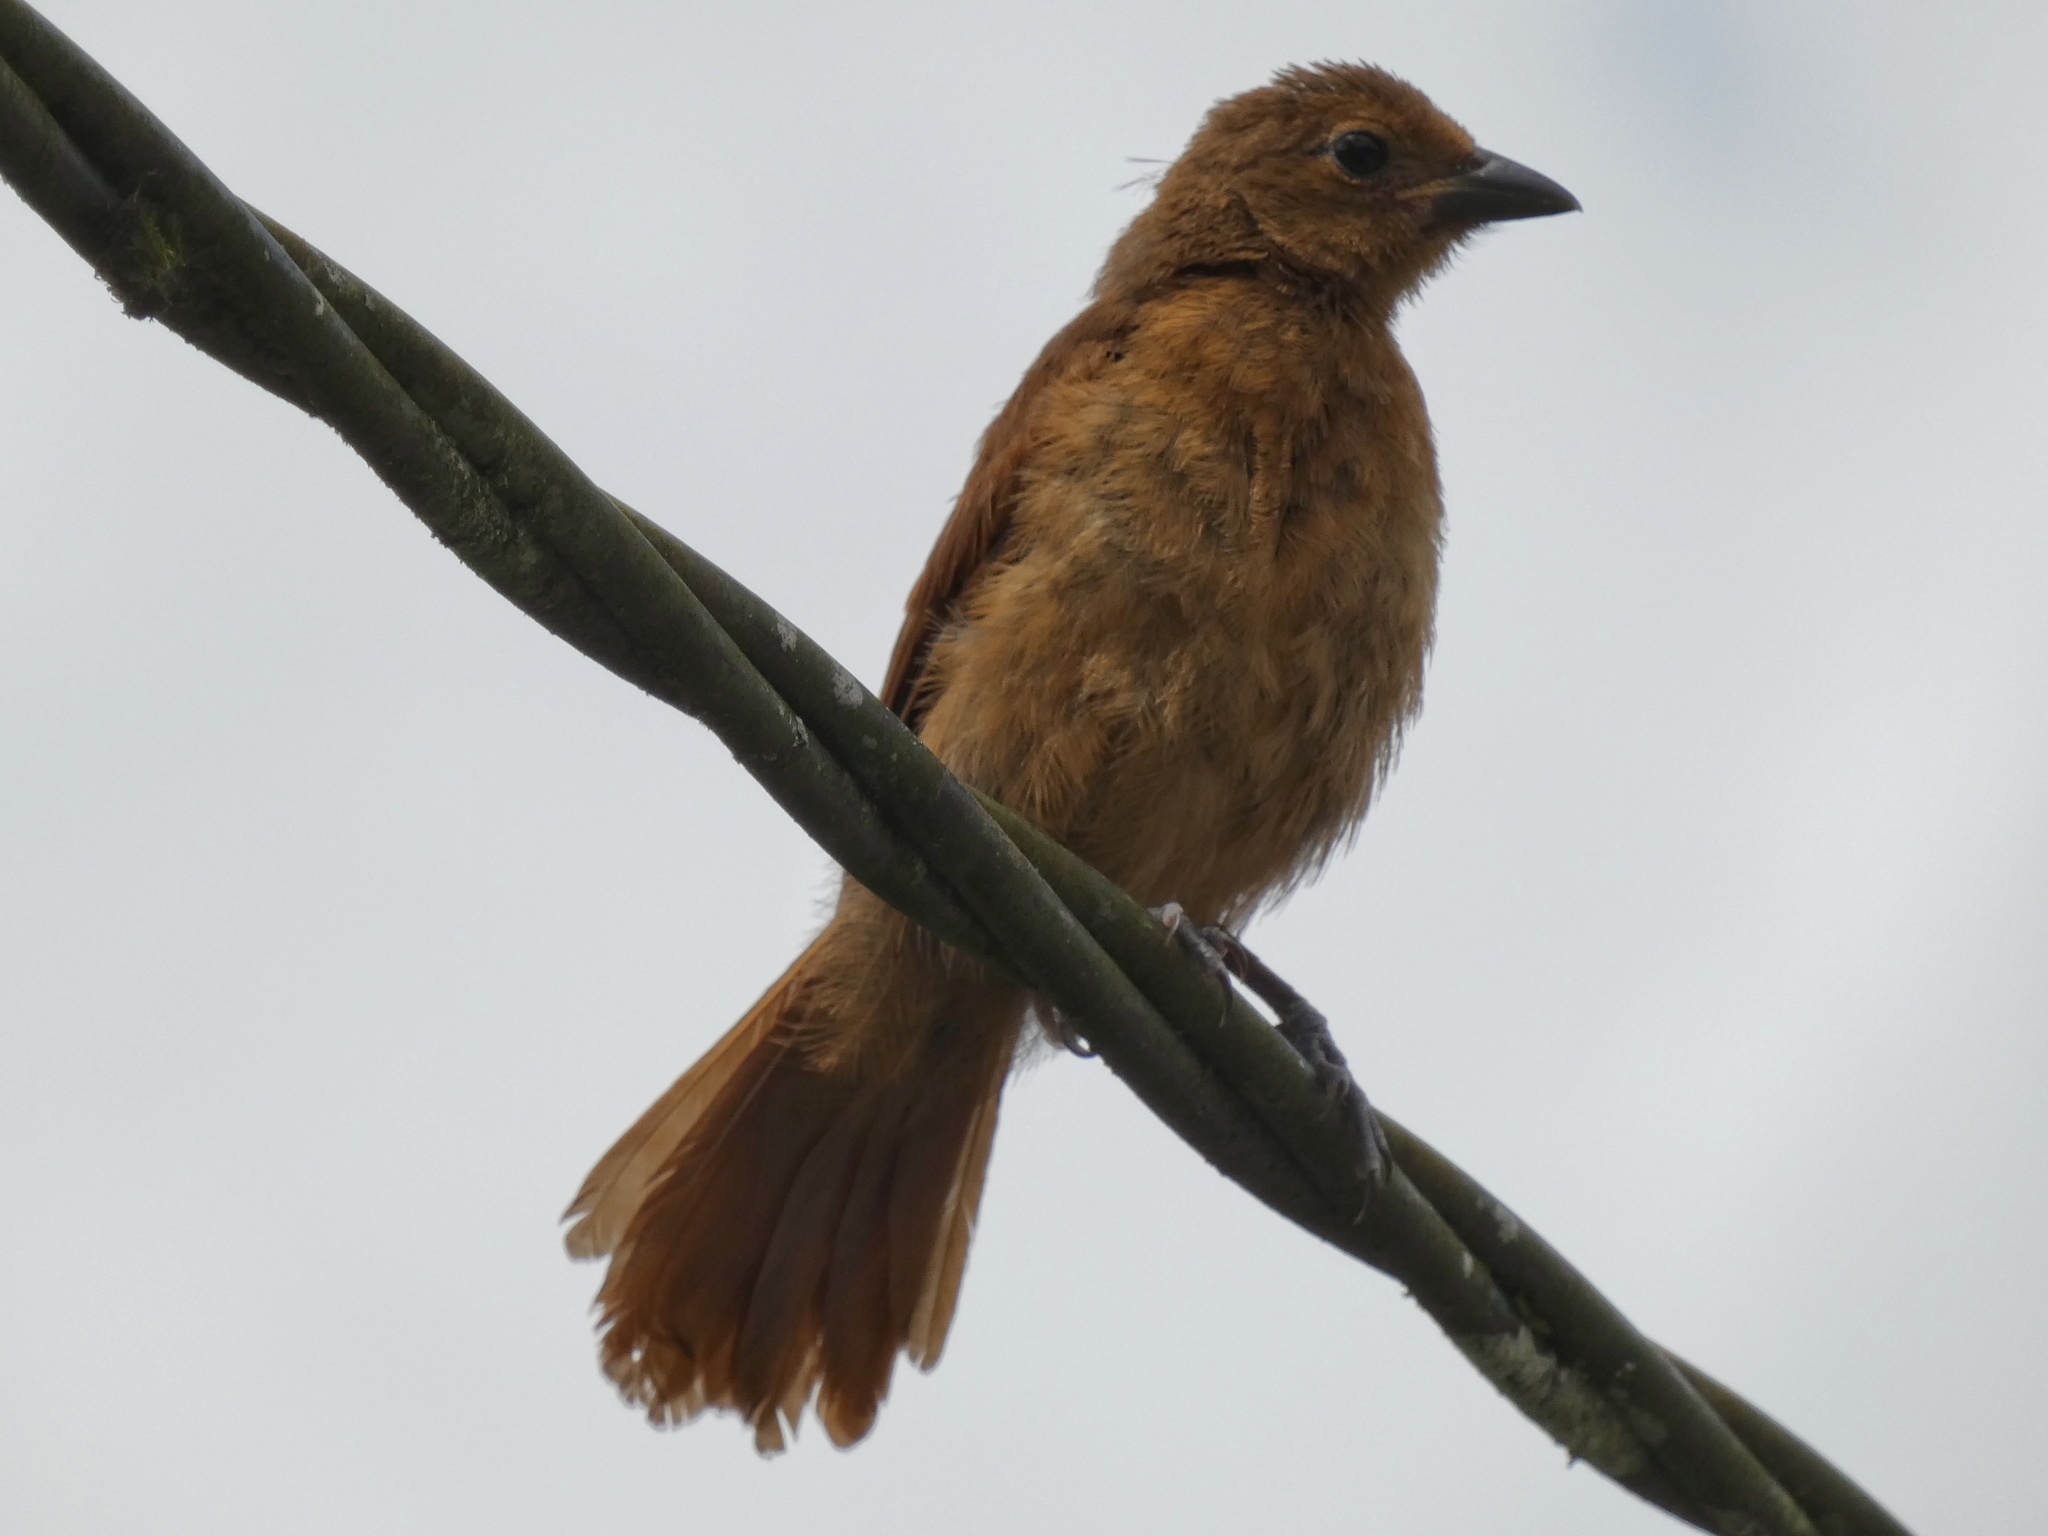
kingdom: Animalia
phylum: Chordata
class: Aves
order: Passeriformes
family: Thraupidae
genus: Tachyphonus
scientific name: Tachyphonus rufus
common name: White-lined tanager
